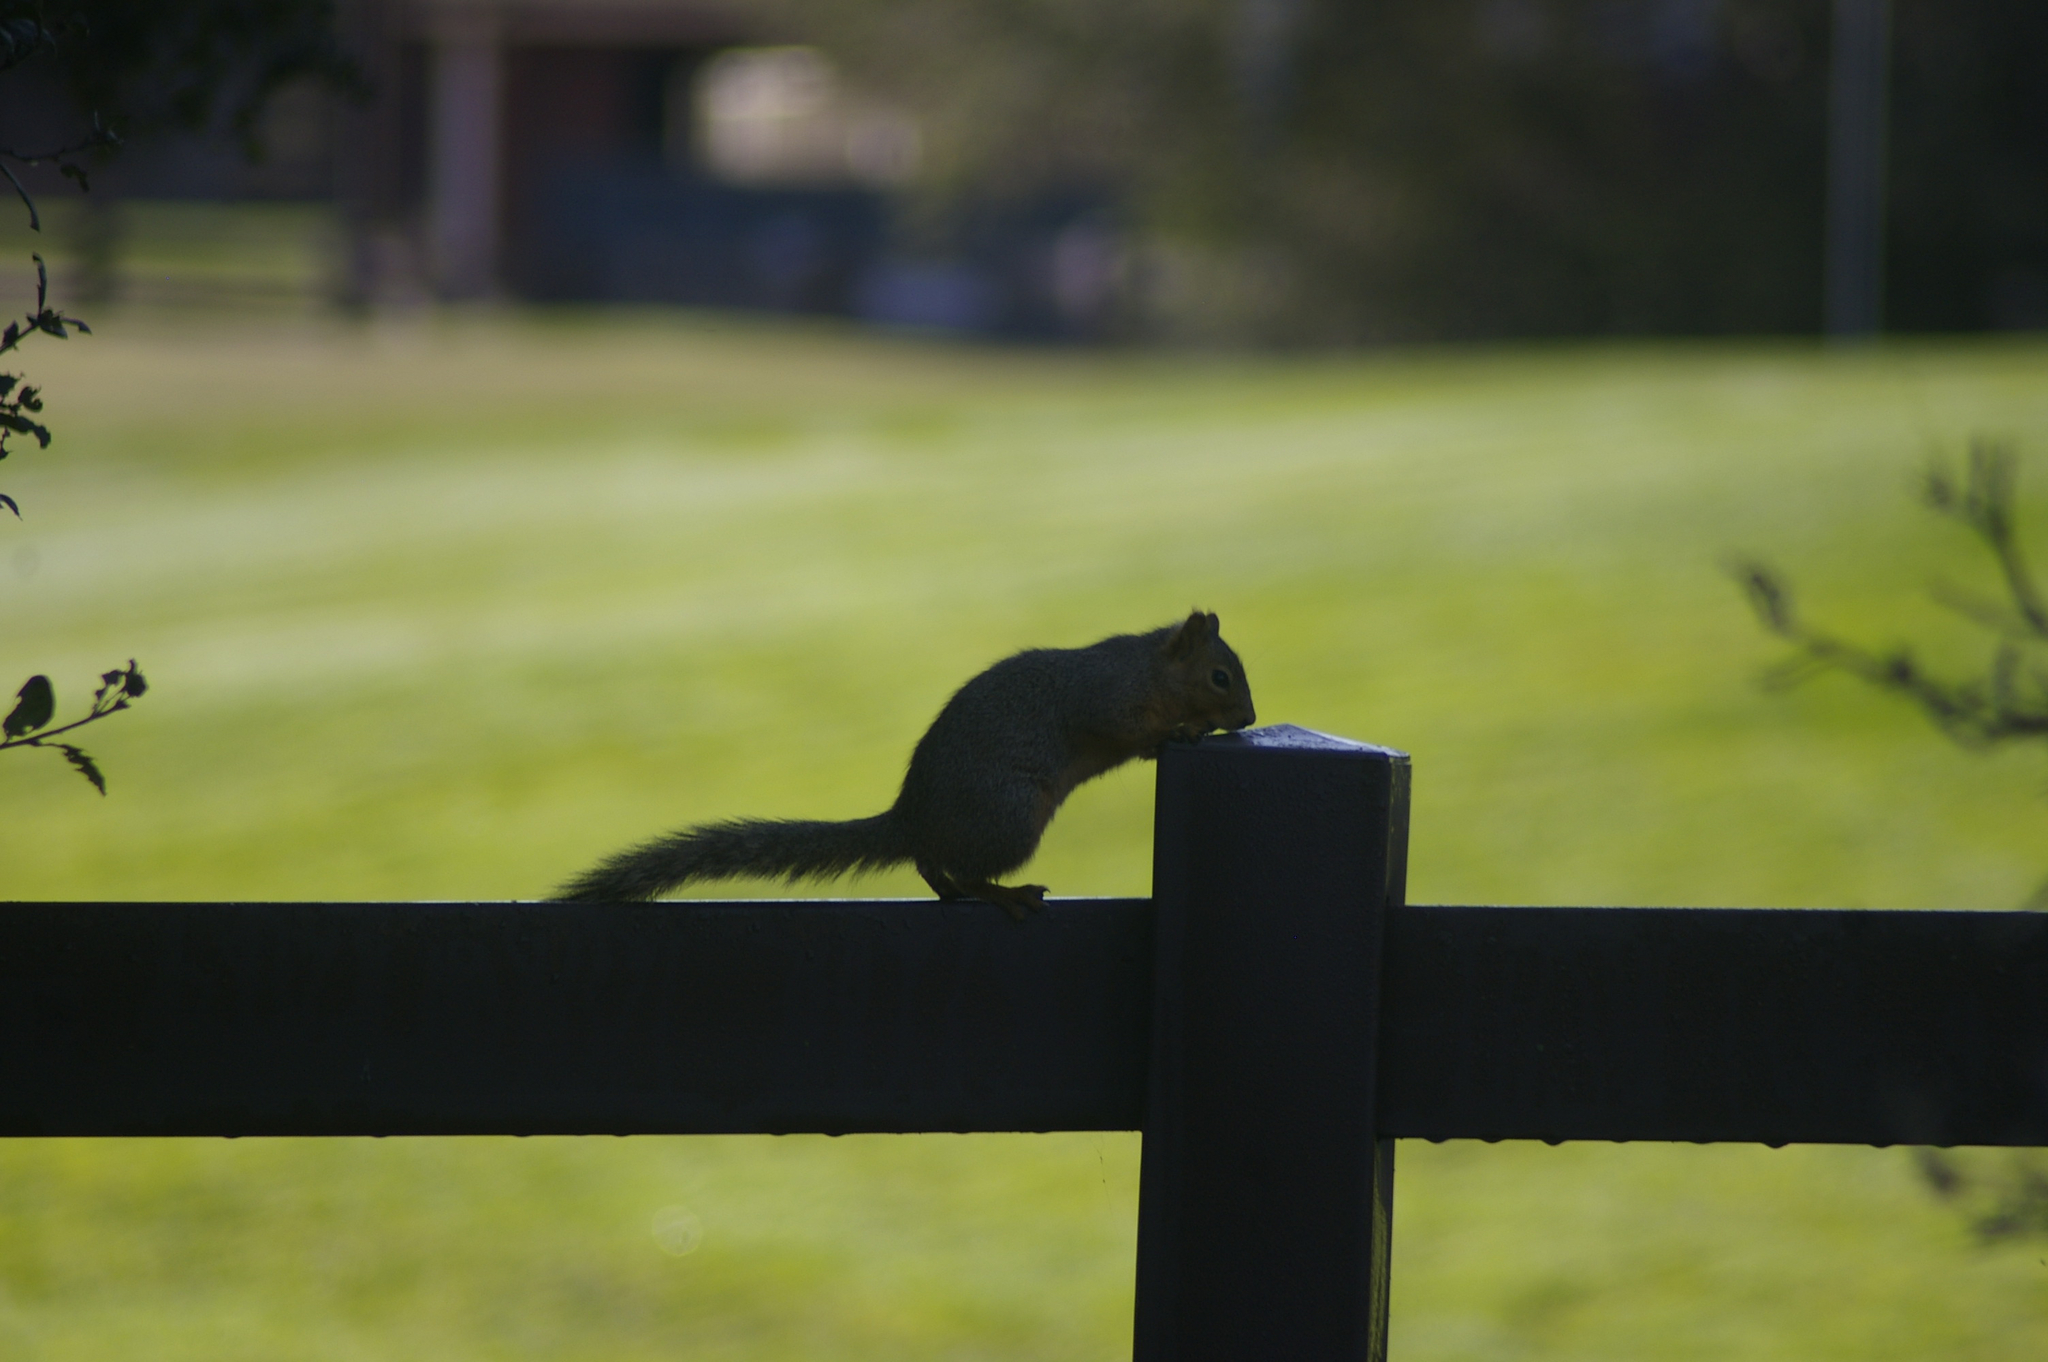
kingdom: Animalia
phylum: Chordata
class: Mammalia
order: Rodentia
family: Sciuridae
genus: Sciurus
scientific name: Sciurus niger
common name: Fox squirrel
